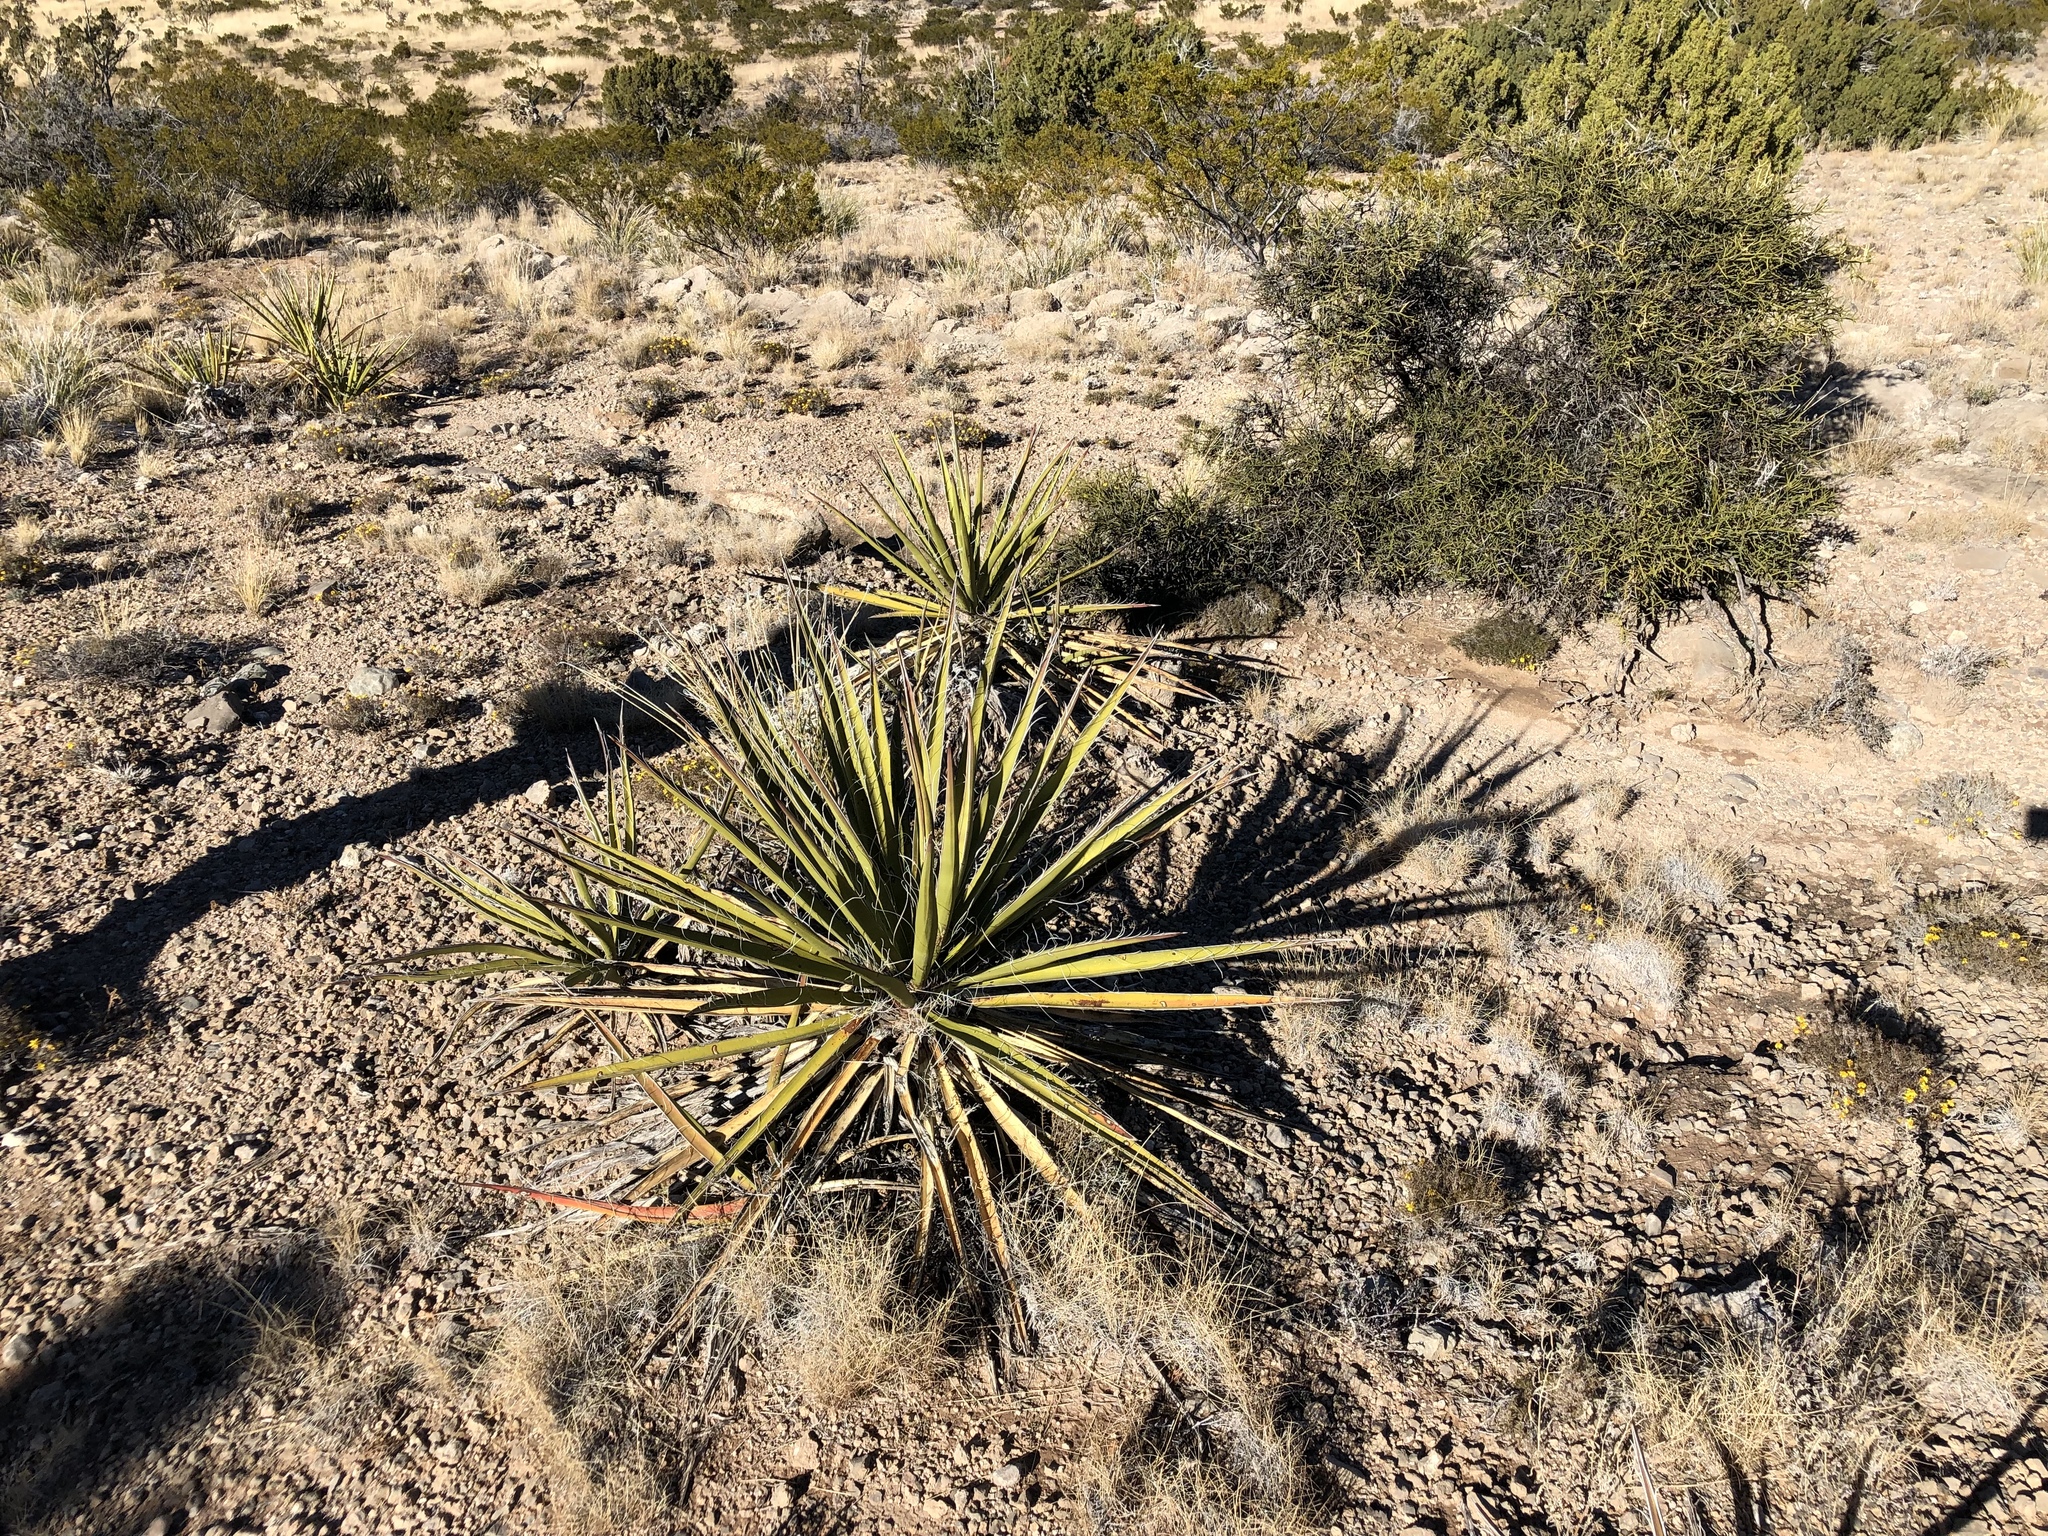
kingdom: Plantae
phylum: Tracheophyta
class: Liliopsida
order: Asparagales
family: Asparagaceae
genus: Yucca
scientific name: Yucca baccata
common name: Banana yucca
